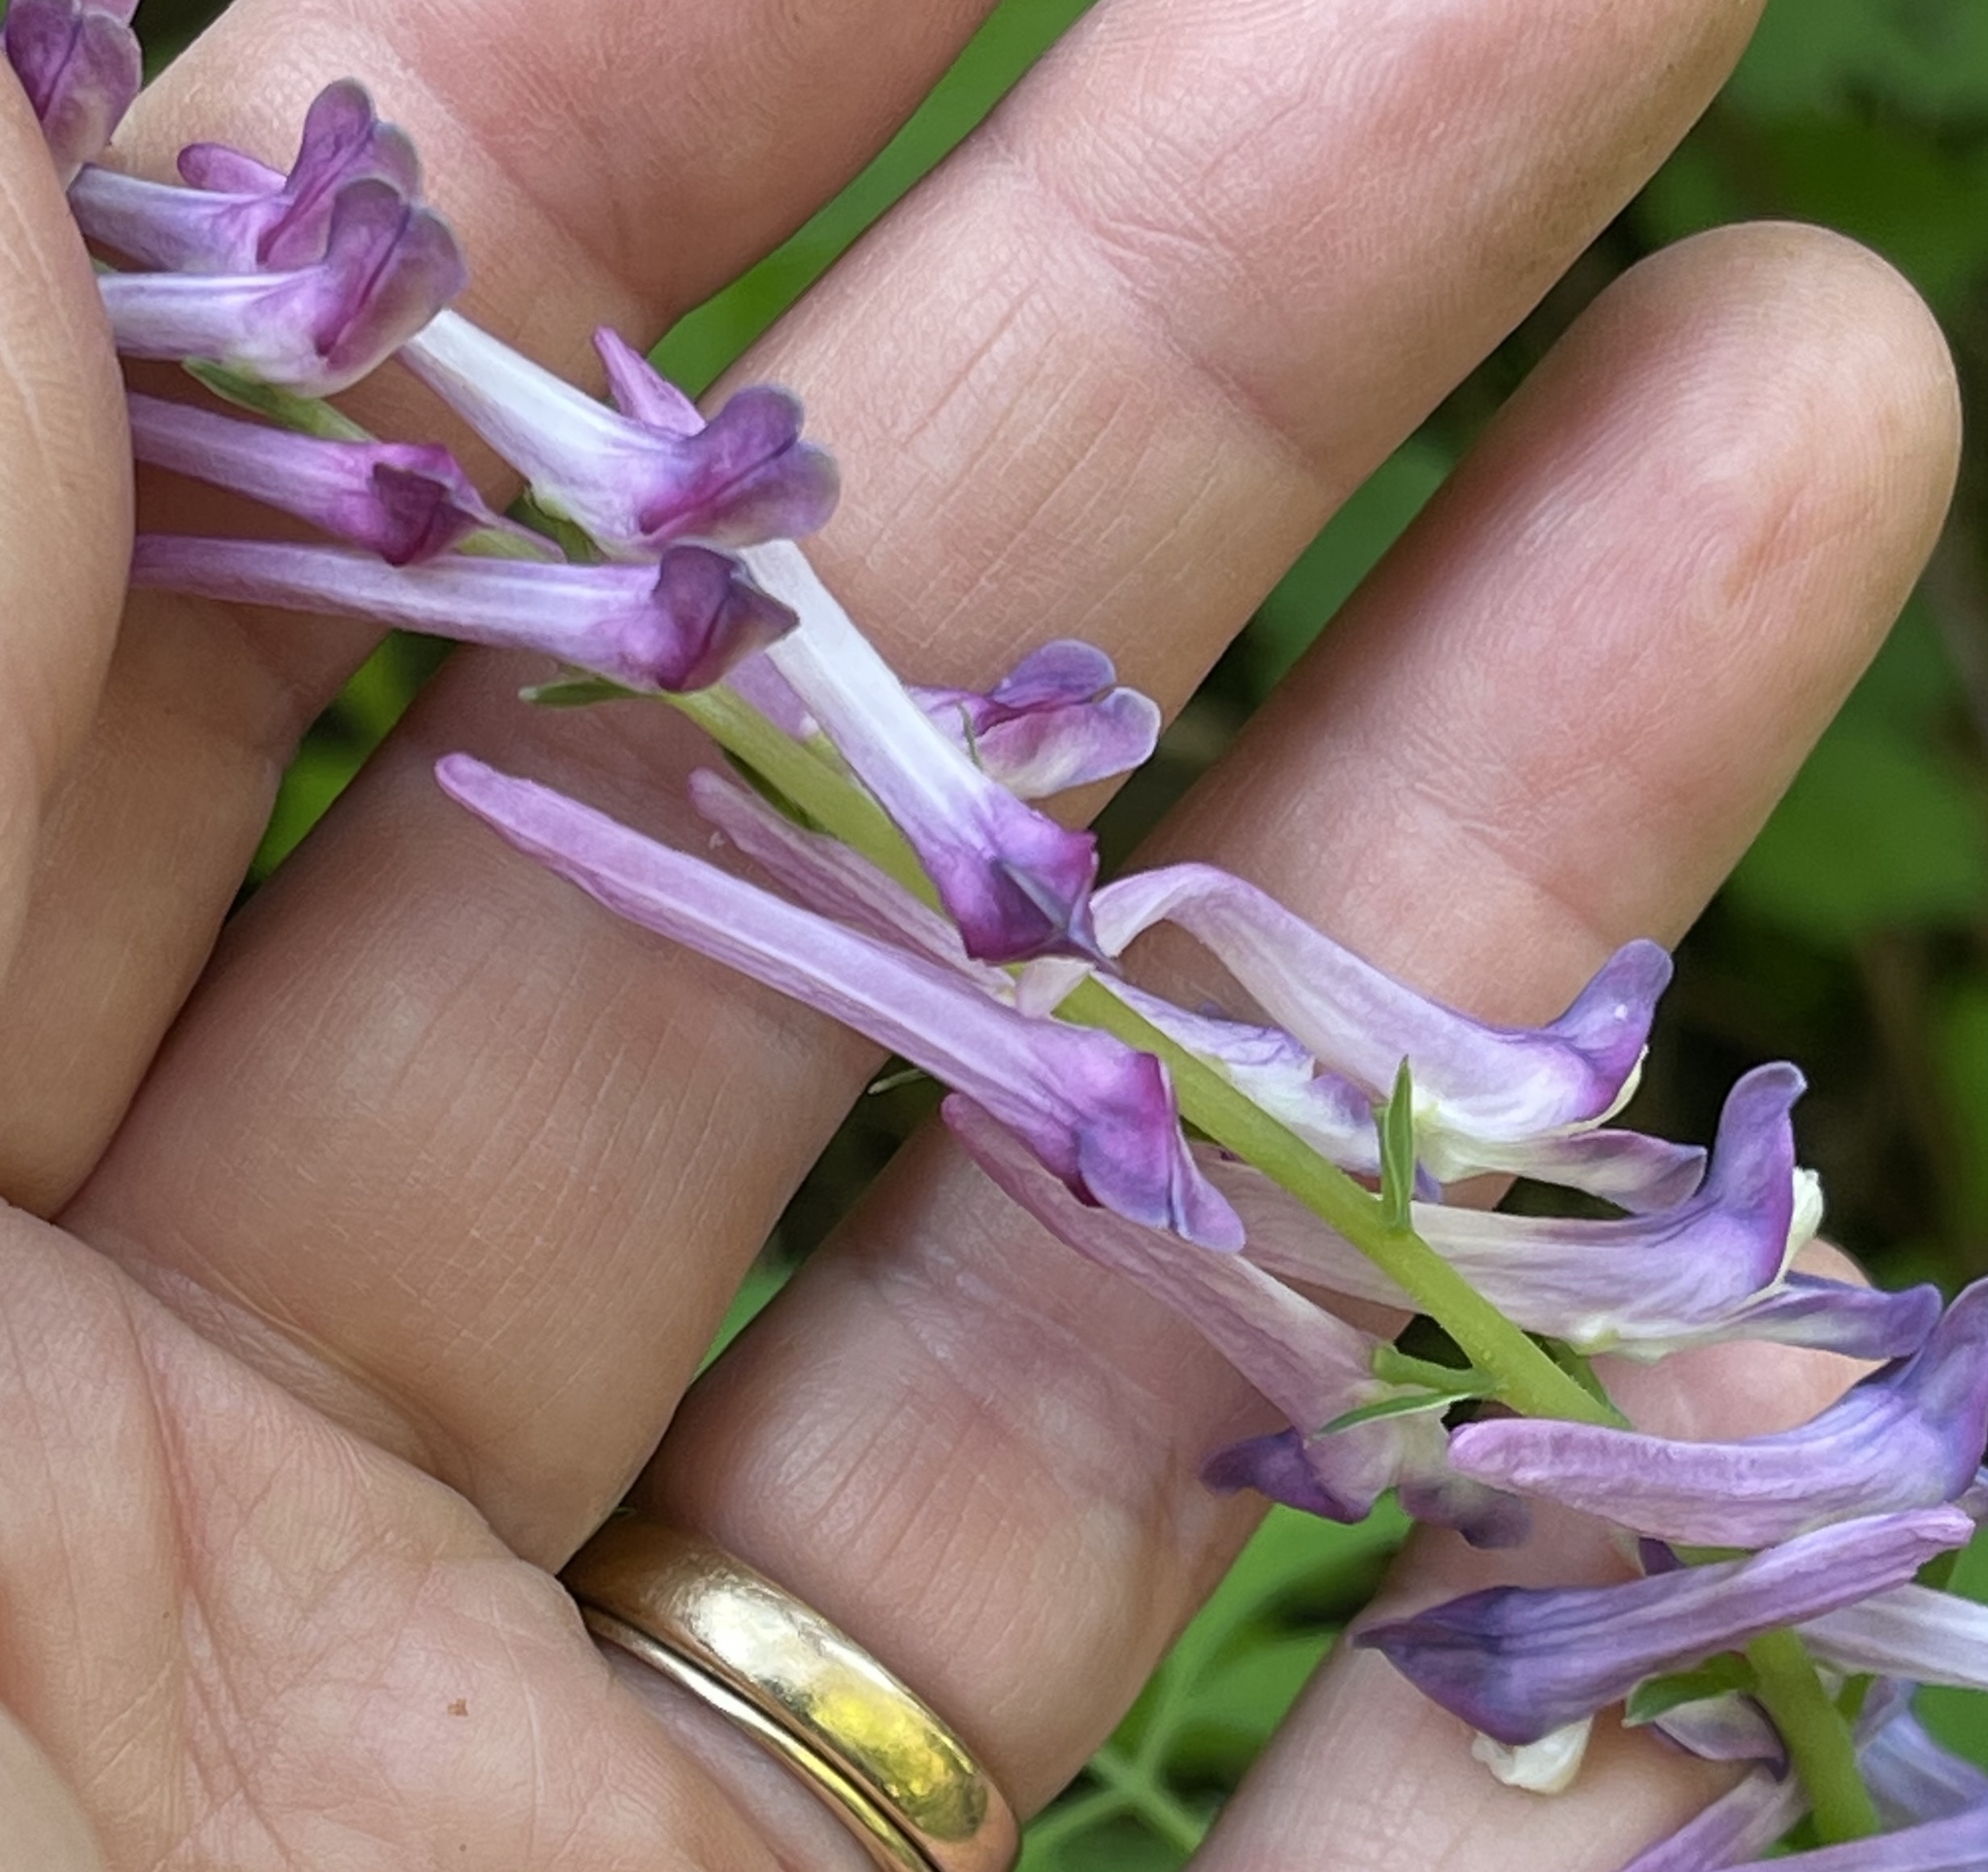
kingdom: Plantae
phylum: Tracheophyta
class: Magnoliopsida
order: Ranunculales
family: Papaveraceae
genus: Corydalis
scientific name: Corydalis scouleri
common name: Scouler's corydalis
